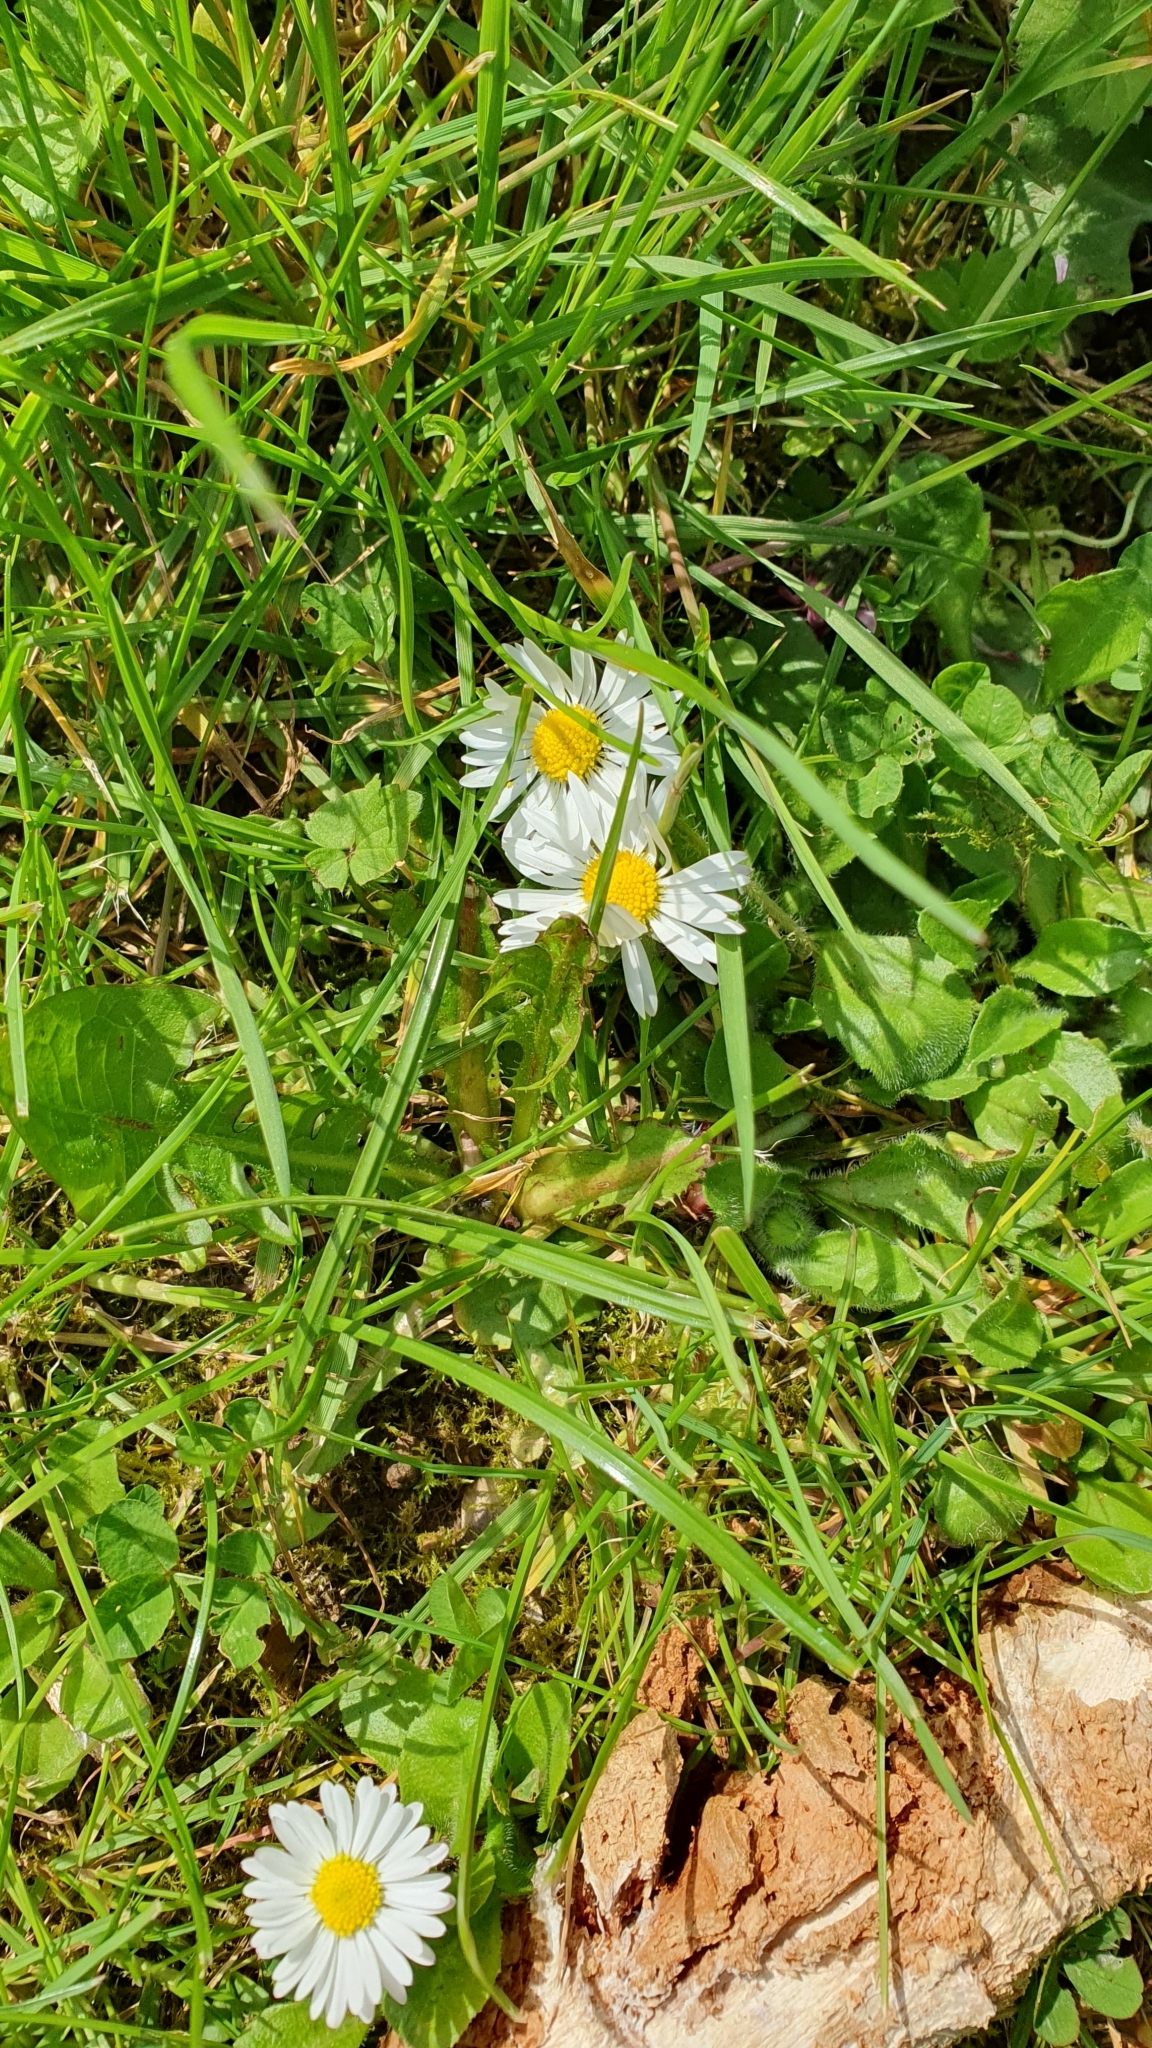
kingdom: Plantae
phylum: Tracheophyta
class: Magnoliopsida
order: Asterales
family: Asteraceae
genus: Bellis
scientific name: Bellis perennis
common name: Lawndaisy
